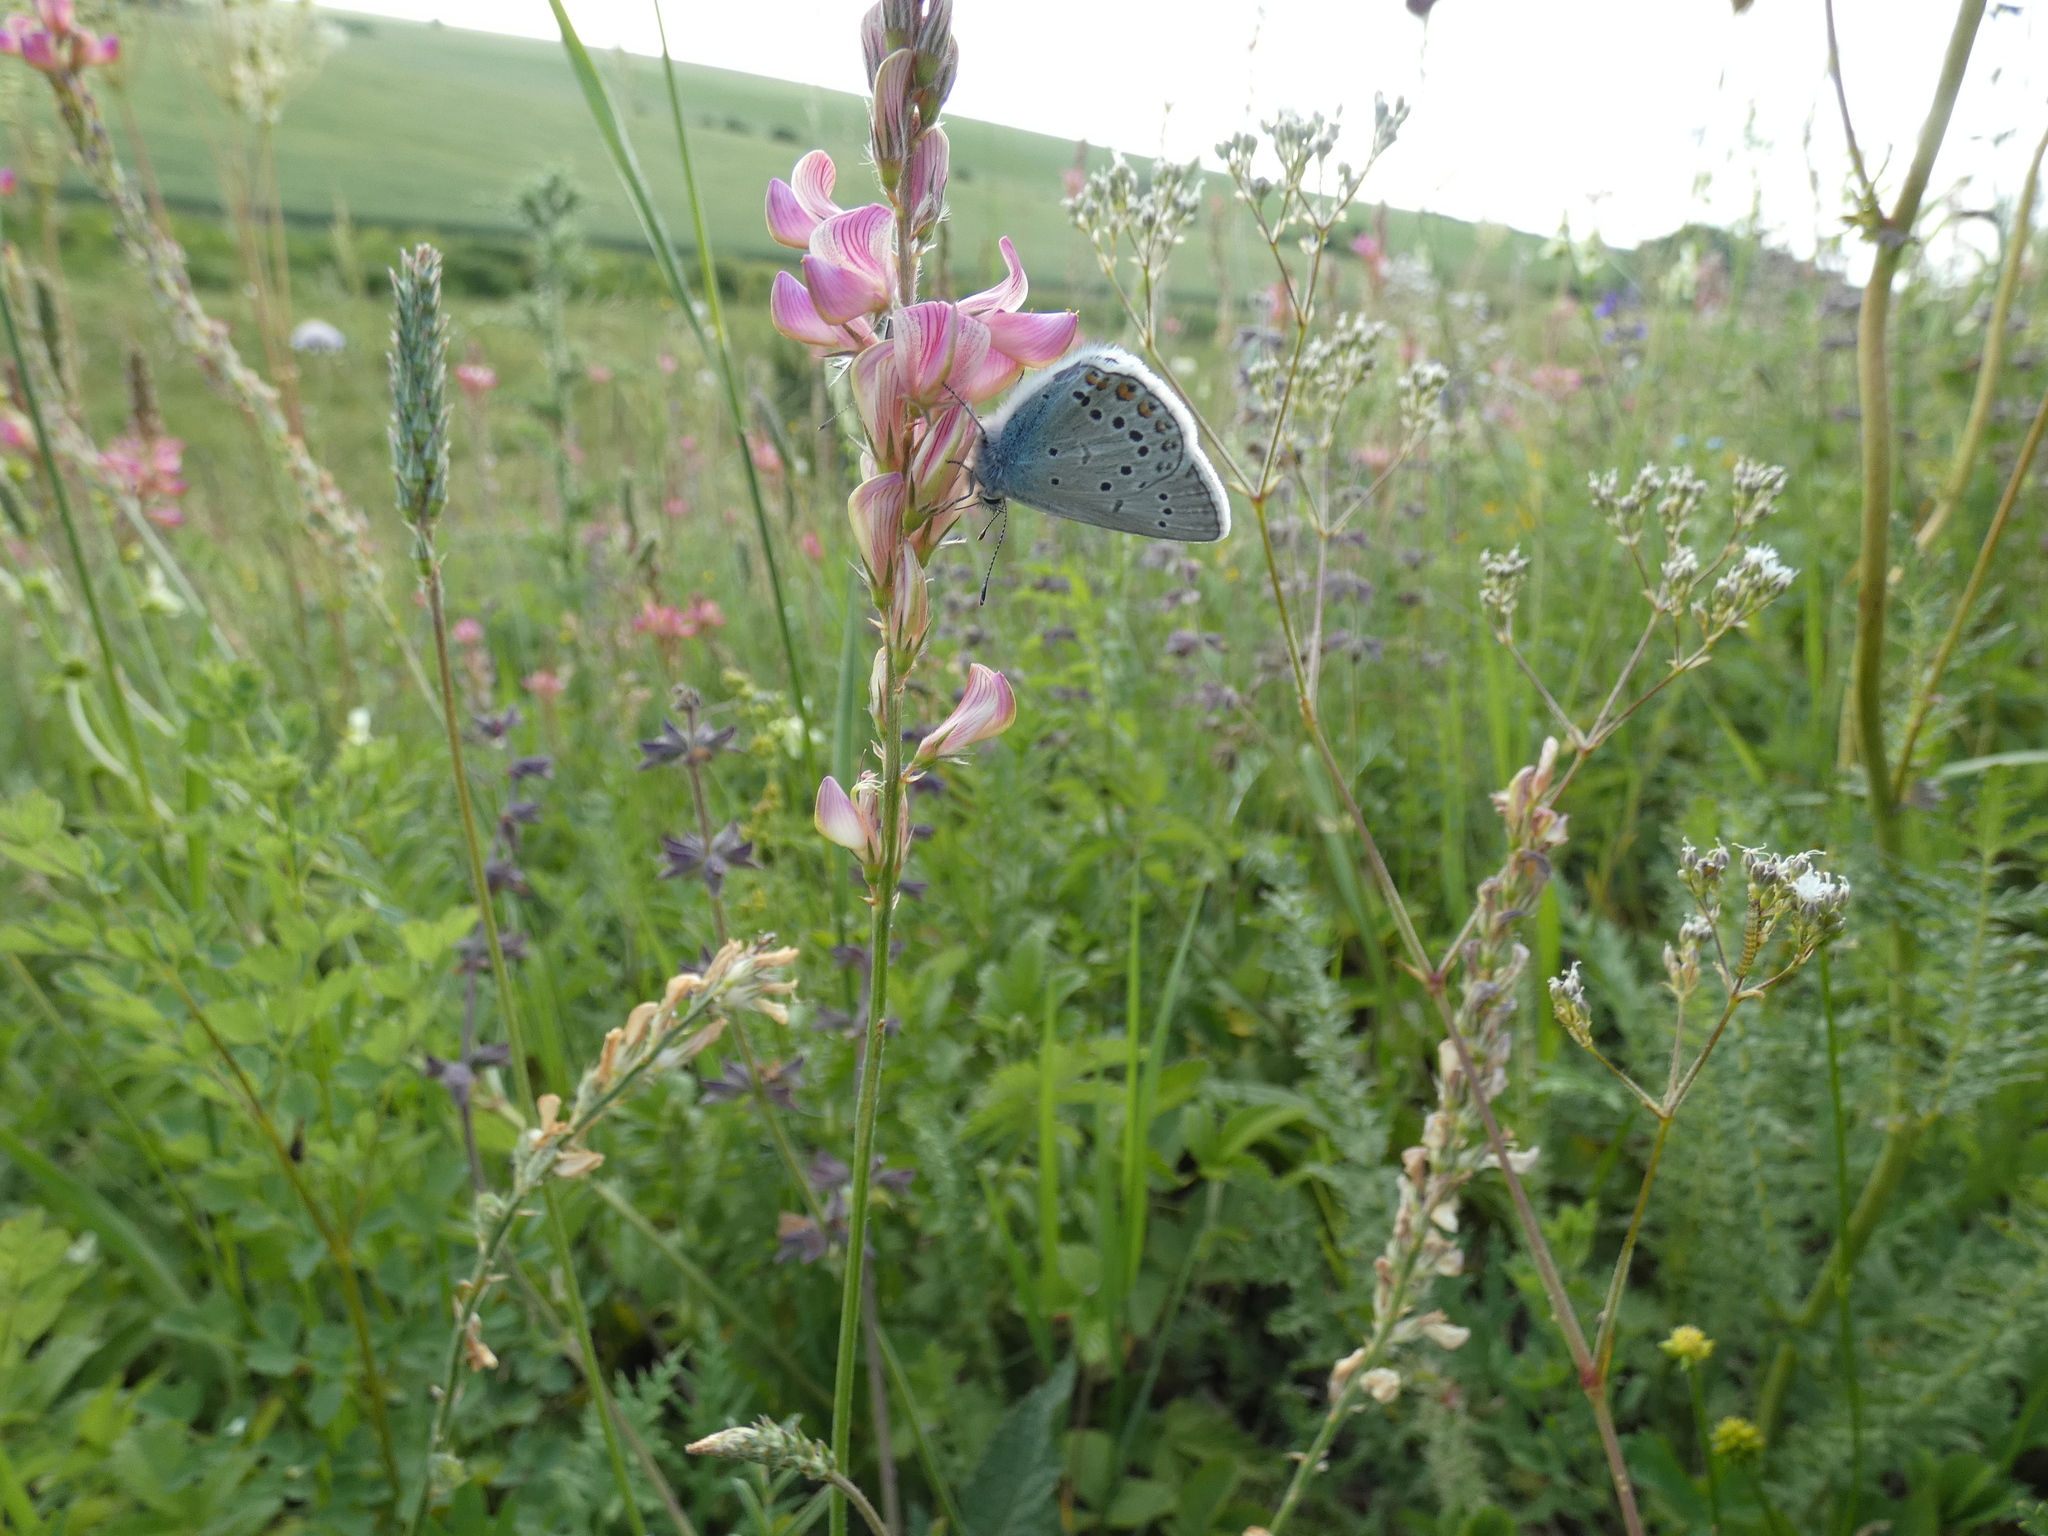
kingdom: Animalia
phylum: Arthropoda
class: Insecta
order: Lepidoptera
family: Lycaenidae
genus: Plebejus
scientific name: Plebejus amanda
